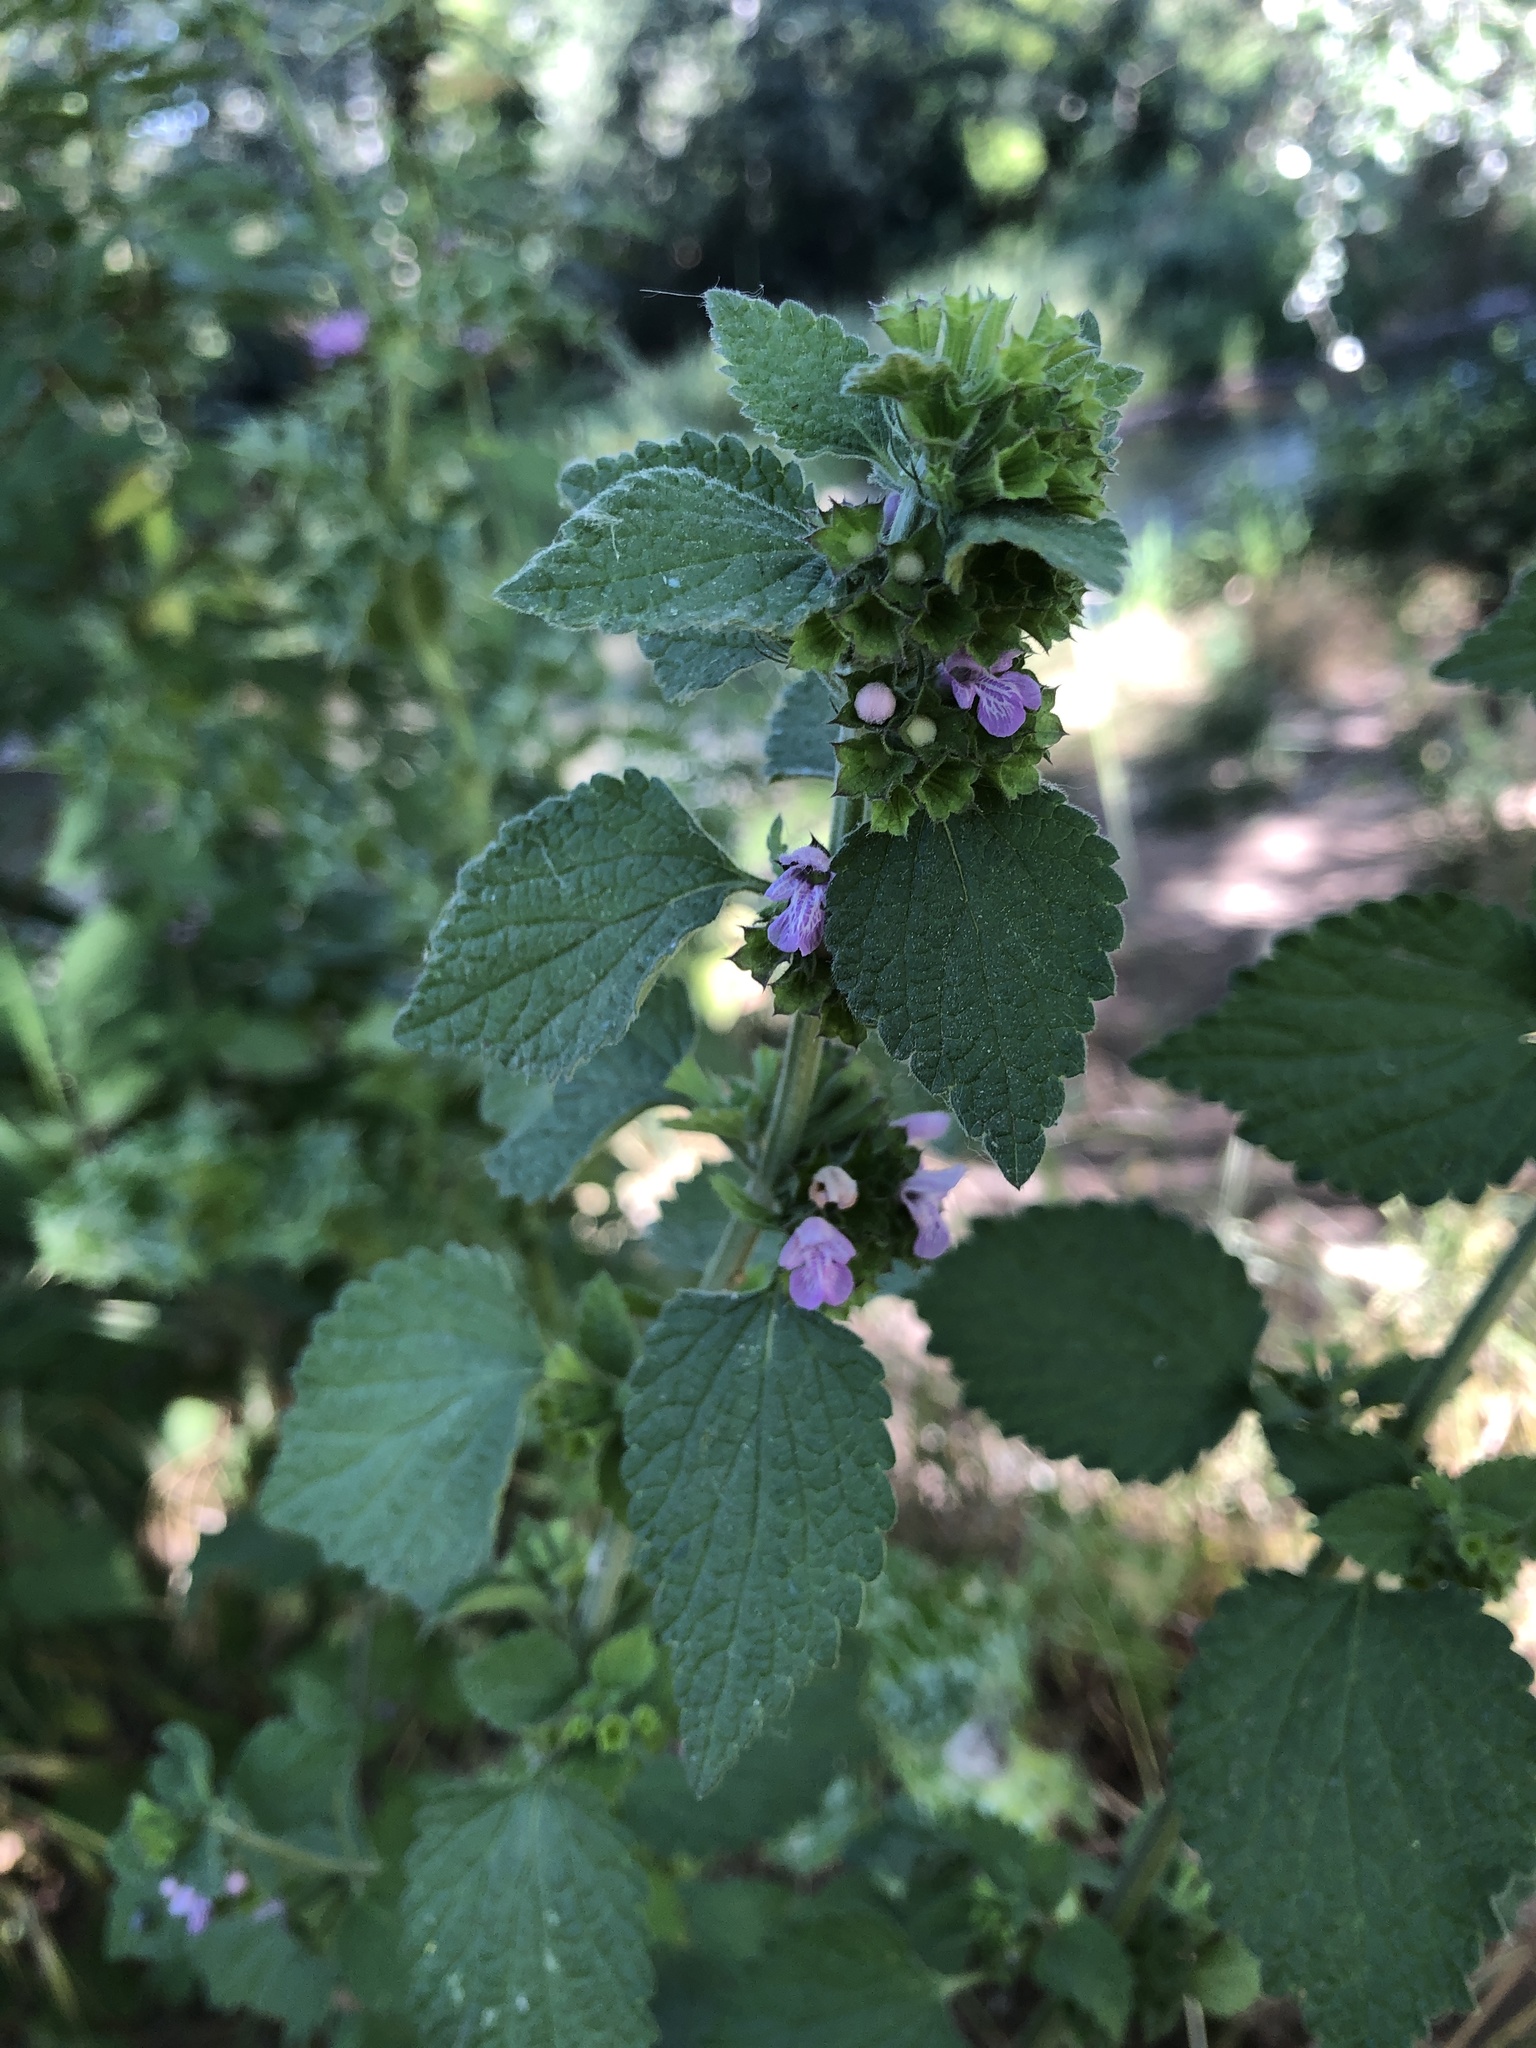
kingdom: Plantae
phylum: Tracheophyta
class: Magnoliopsida
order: Lamiales
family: Lamiaceae
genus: Ballota
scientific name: Ballota nigra
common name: Black horehound
